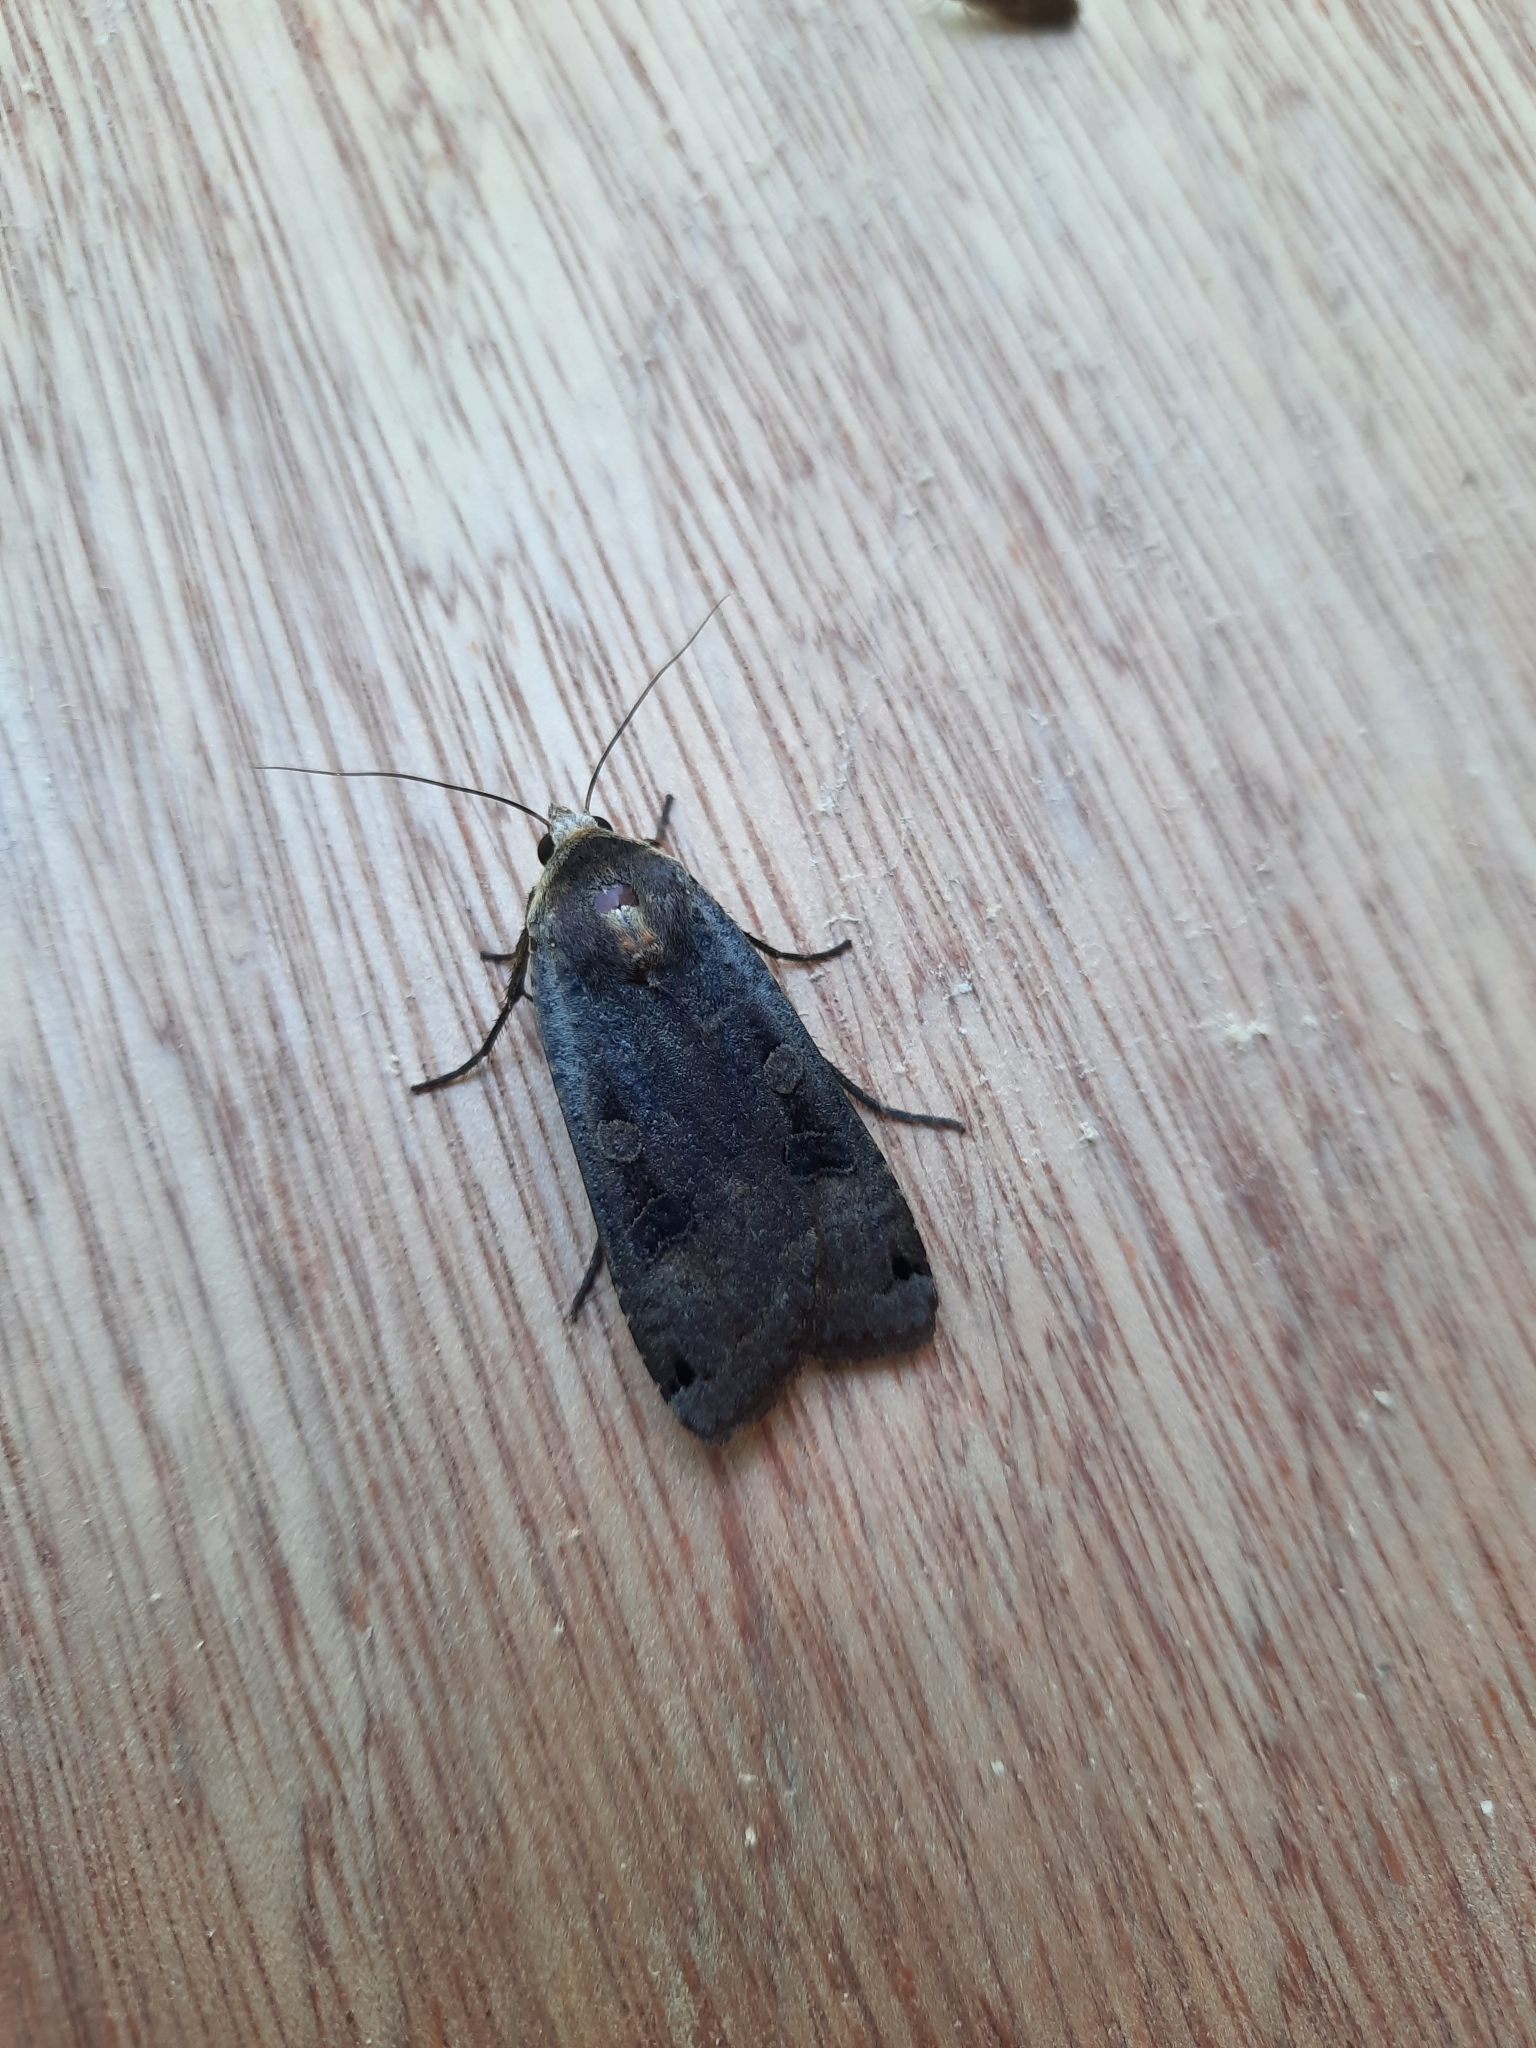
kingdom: Animalia
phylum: Arthropoda
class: Insecta
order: Lepidoptera
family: Noctuidae
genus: Noctua
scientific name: Noctua pronuba
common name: Large yellow underwing
